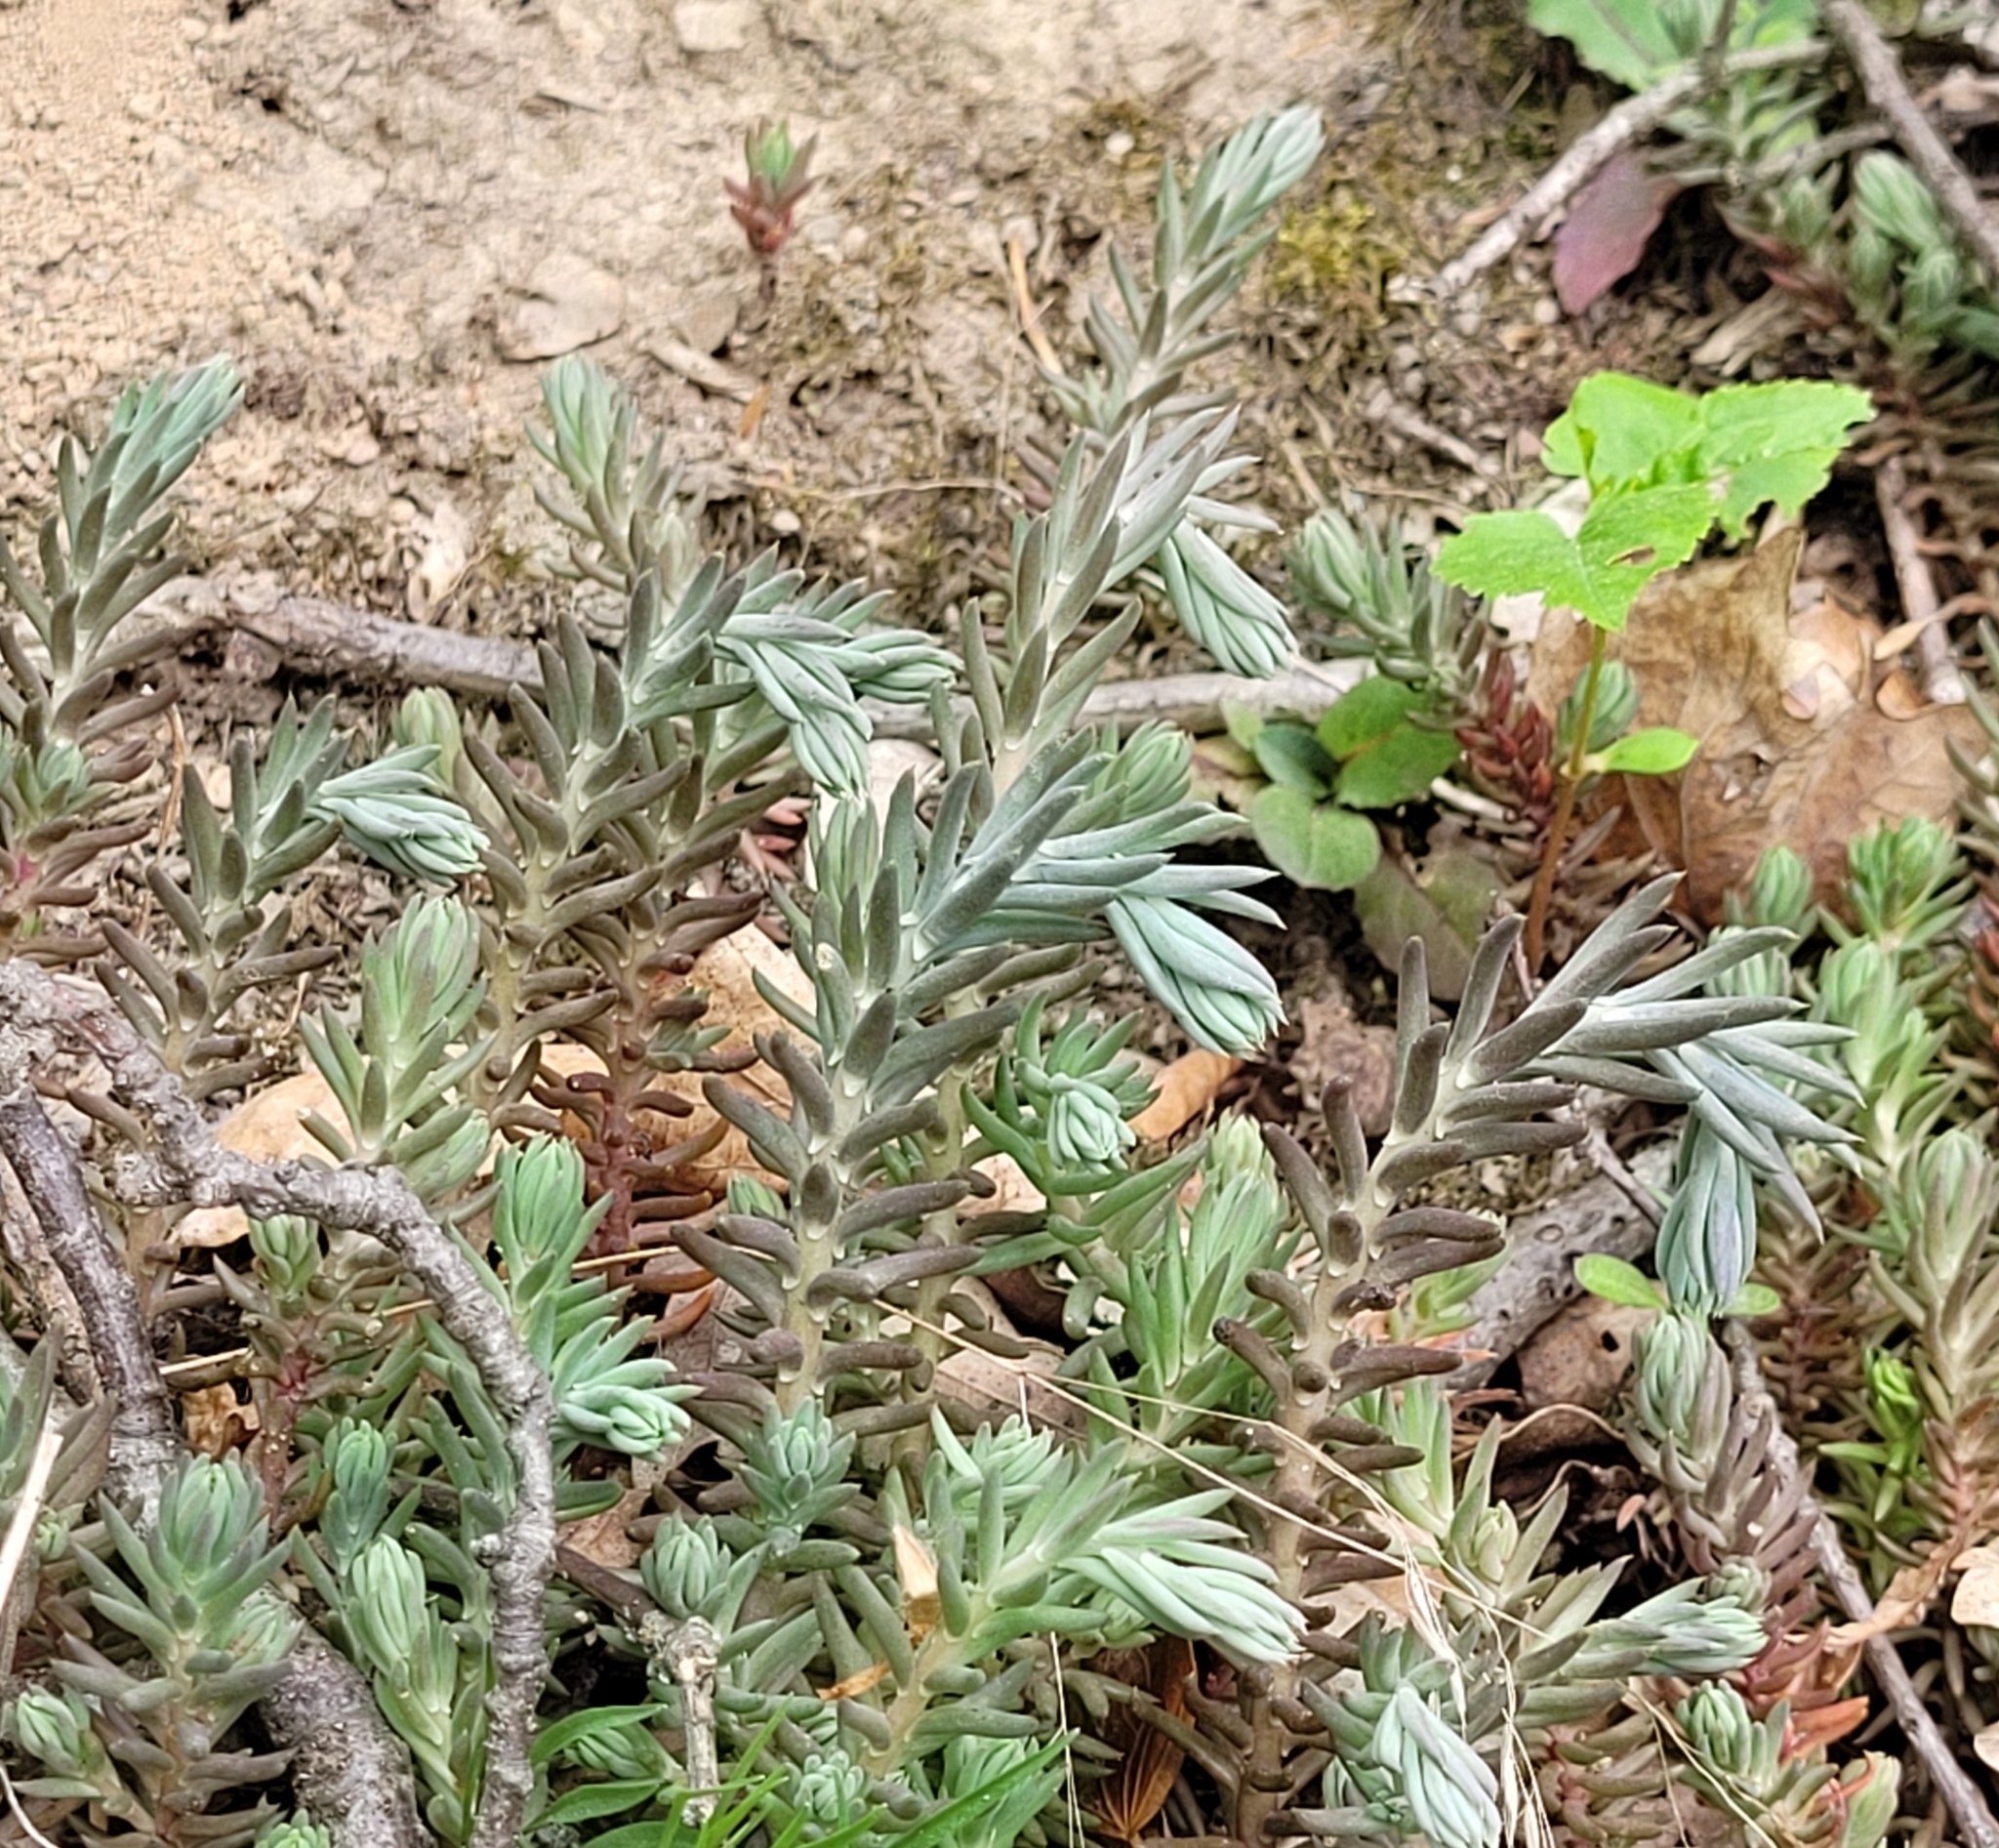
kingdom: Plantae
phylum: Tracheophyta
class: Magnoliopsida
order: Saxifragales
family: Crassulaceae
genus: Petrosedum
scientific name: Petrosedum rupestre
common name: Jenny's stonecrop
